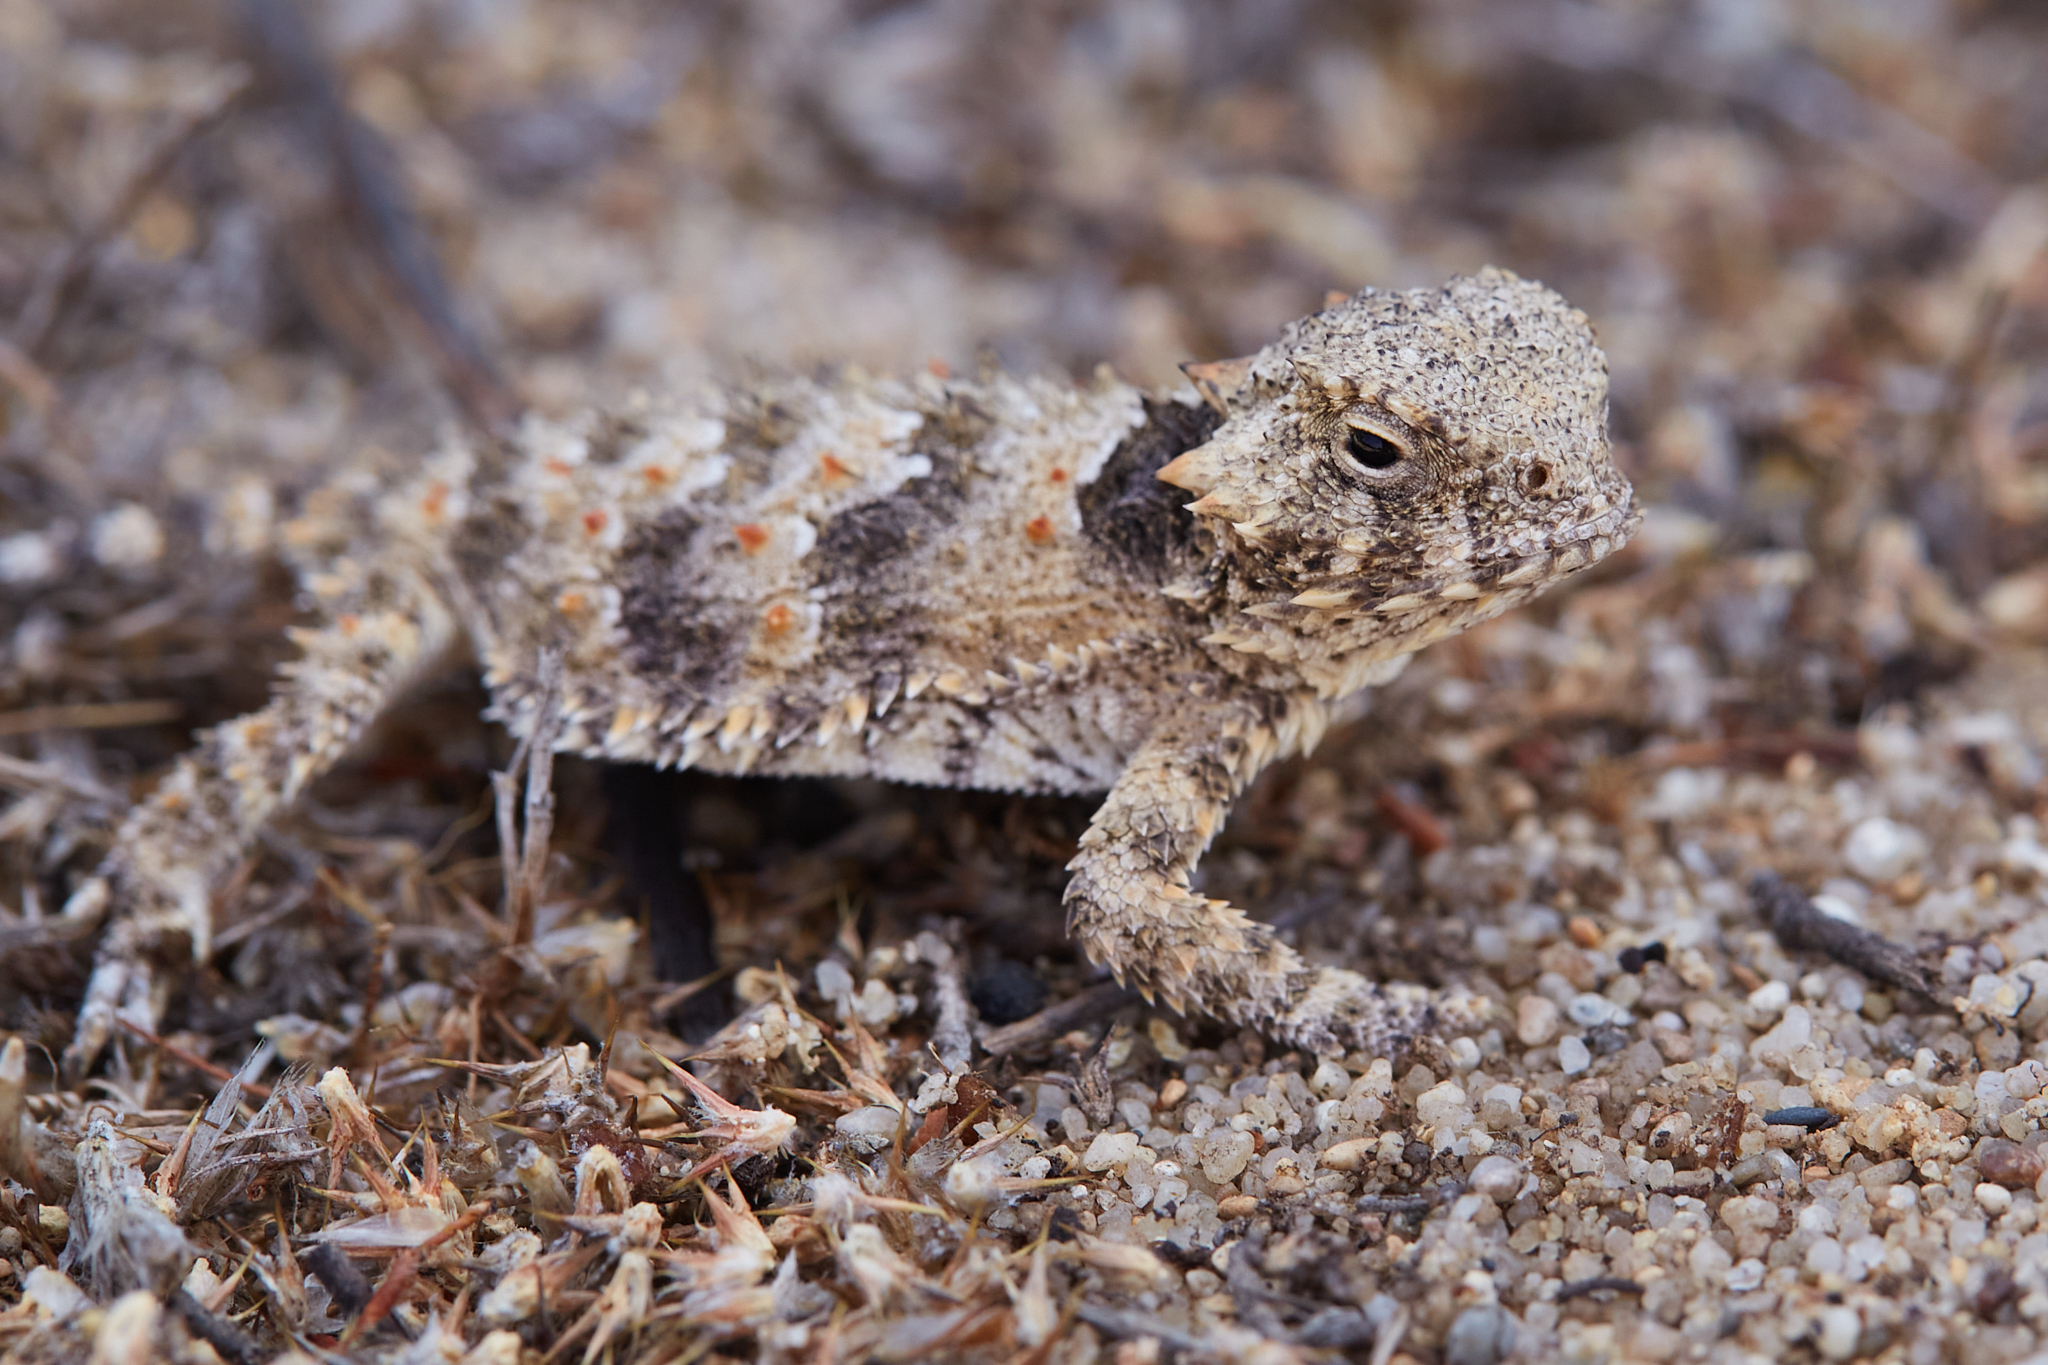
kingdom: Animalia
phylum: Chordata
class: Squamata
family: Phrynosomatidae
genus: Phrynosoma
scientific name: Phrynosoma blainvillii
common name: San diego horned lizard
